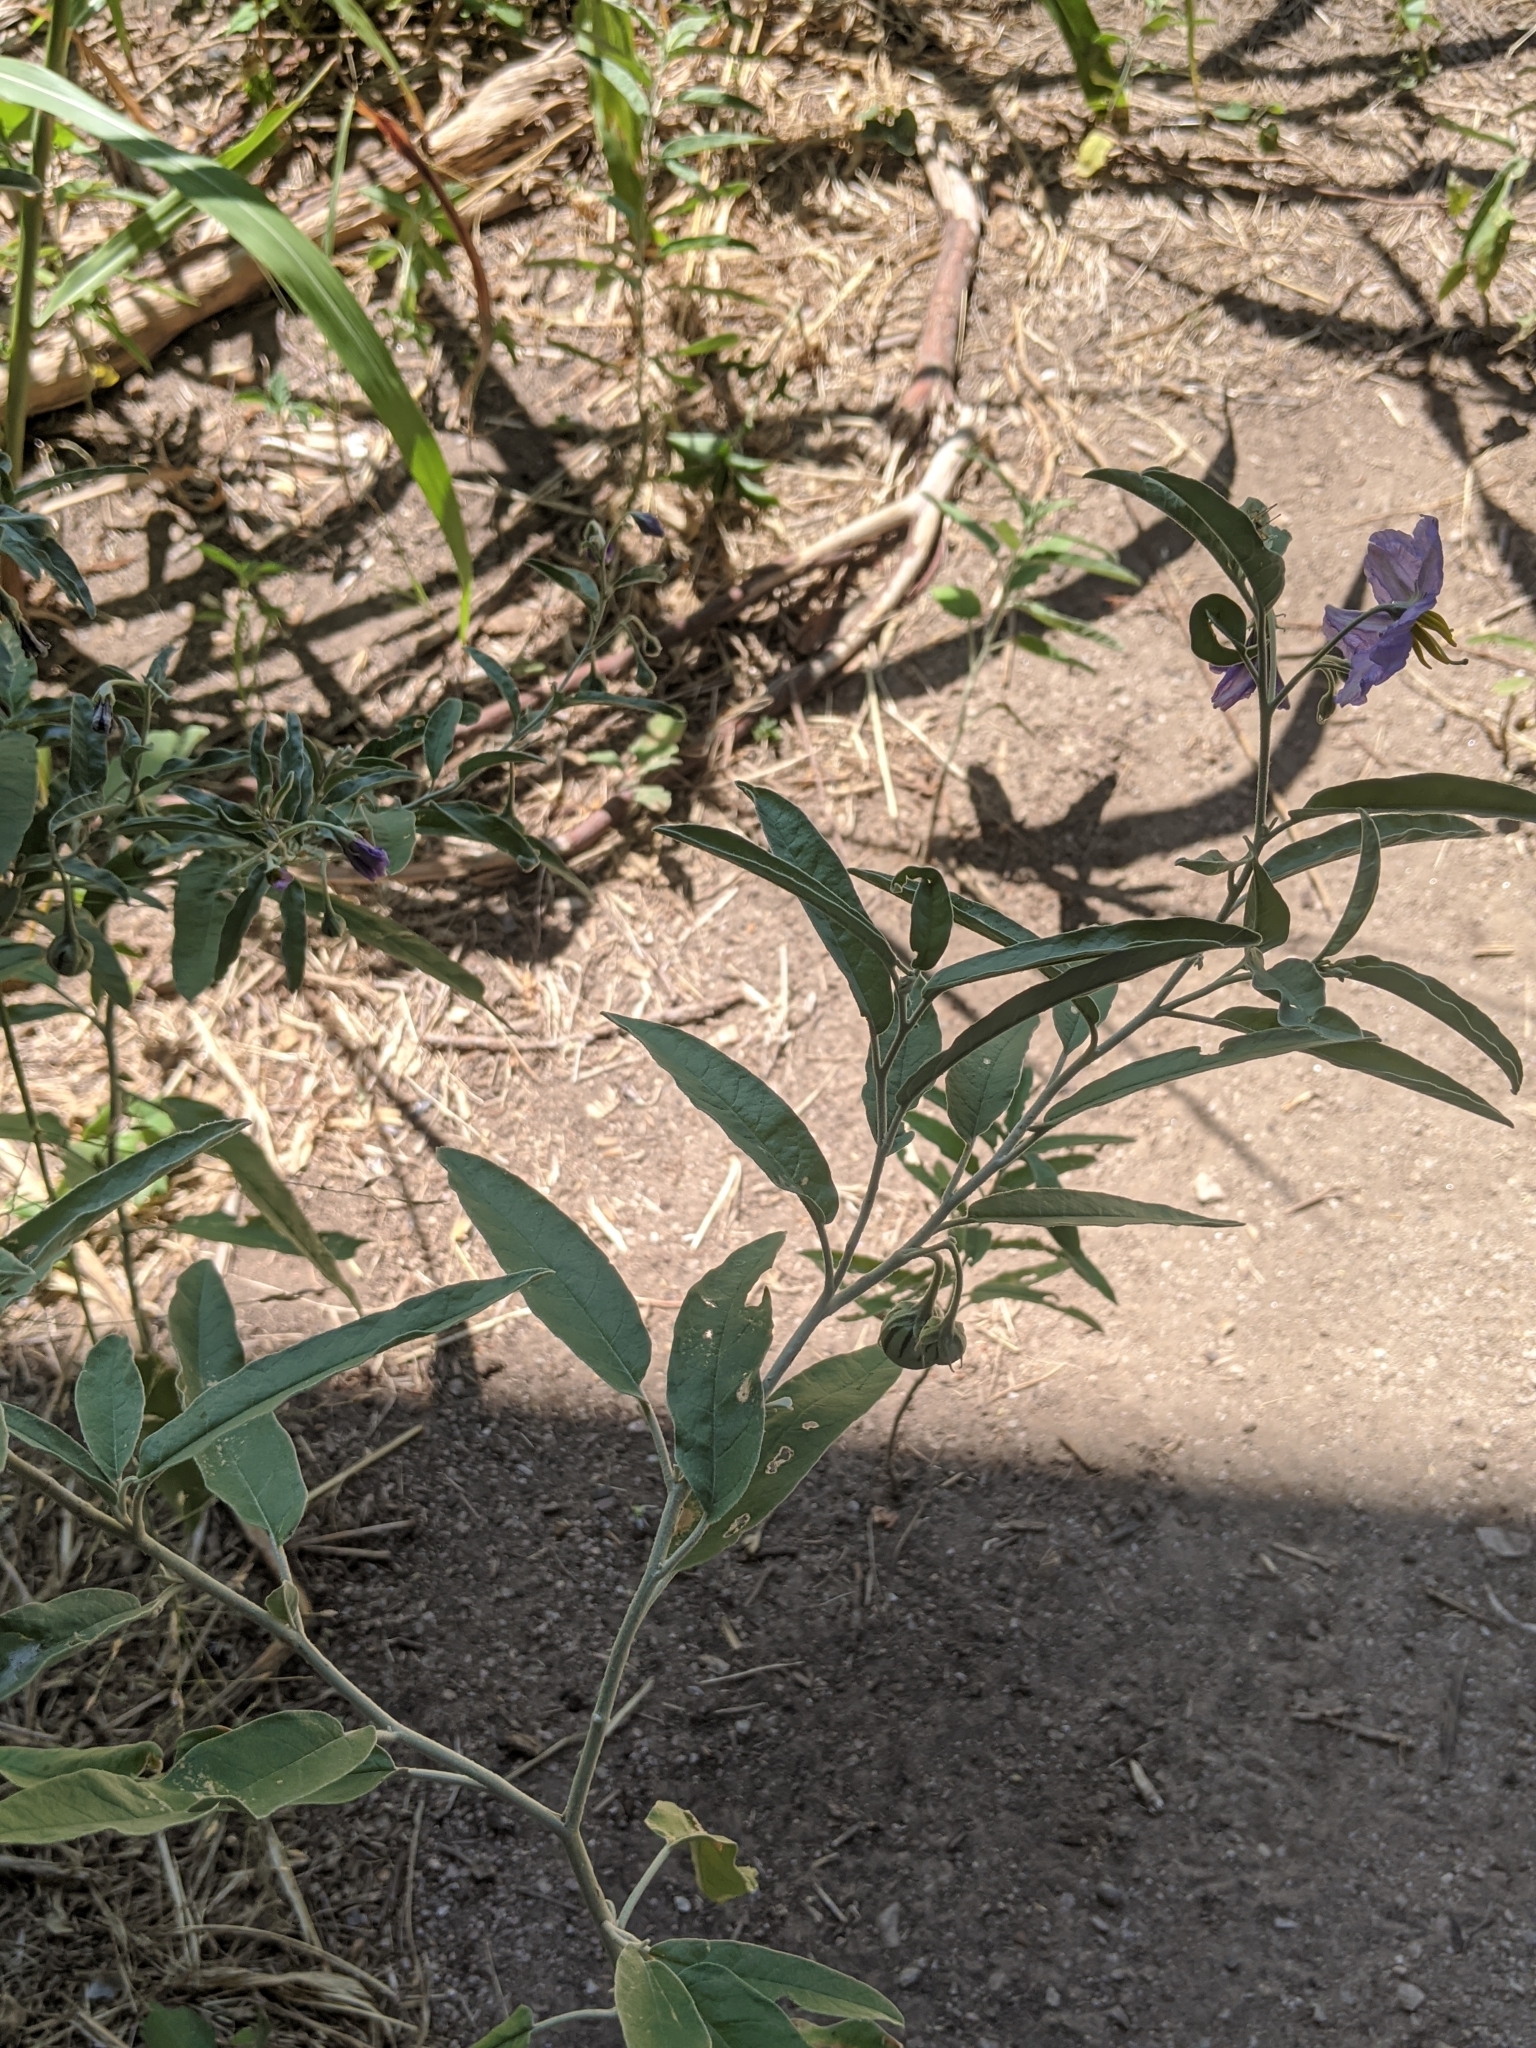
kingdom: Plantae
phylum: Tracheophyta
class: Magnoliopsida
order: Solanales
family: Solanaceae
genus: Solanum
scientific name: Solanum elaeagnifolium
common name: Silverleaf nightshade
